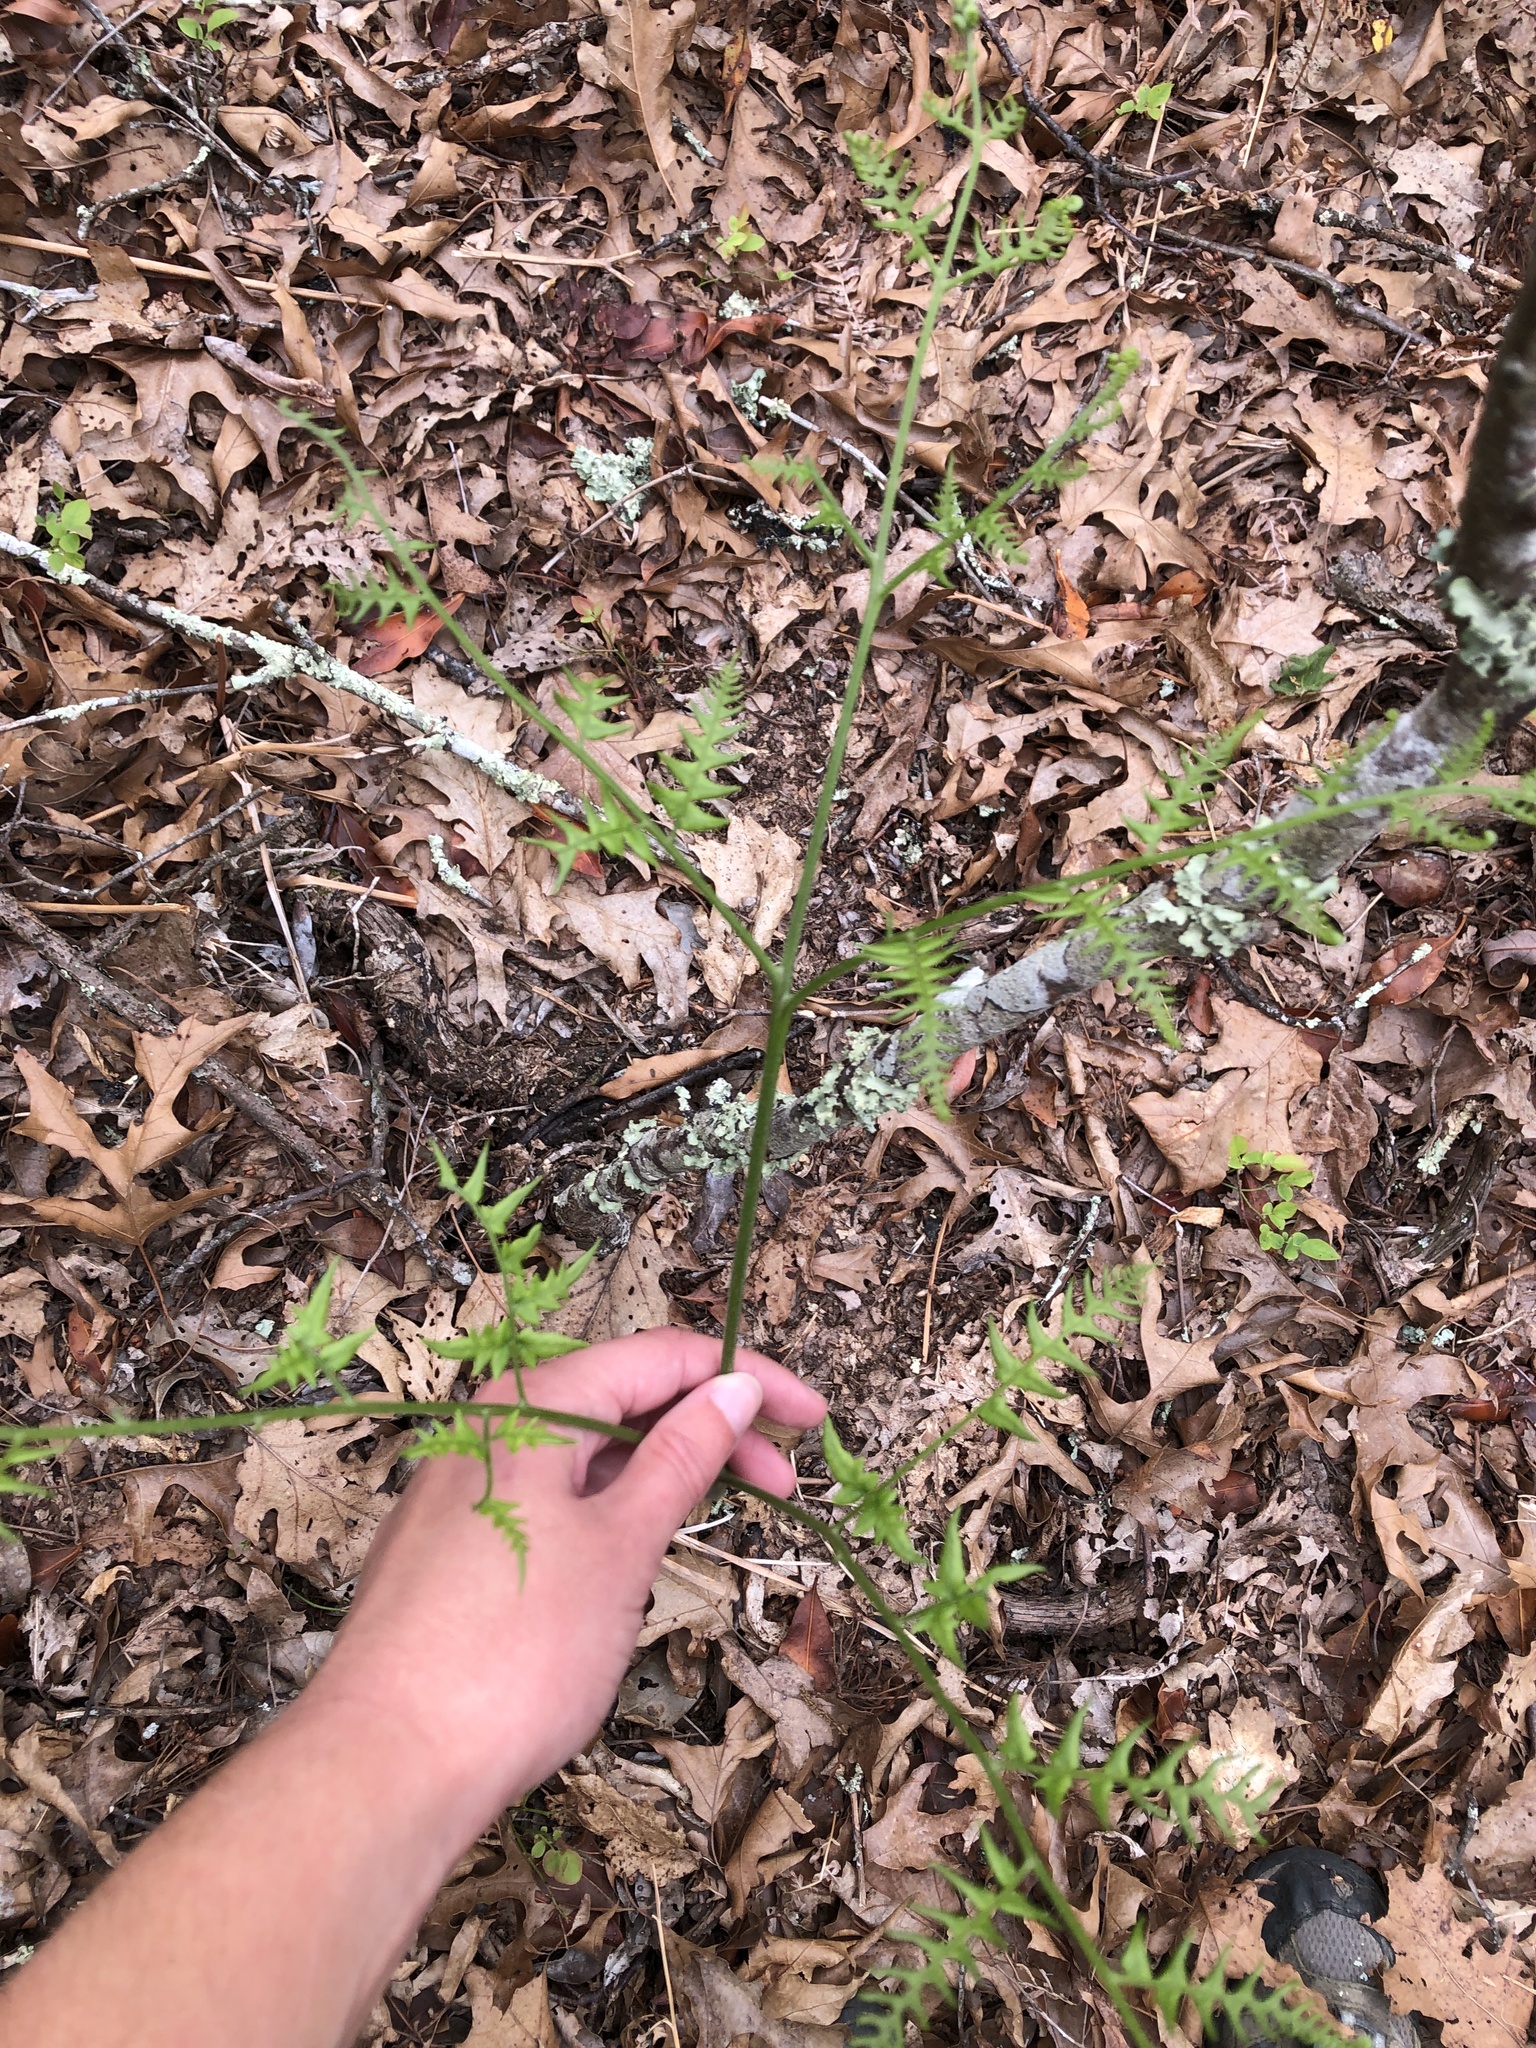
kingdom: Plantae
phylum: Tracheophyta
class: Polypodiopsida
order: Polypodiales
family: Dennstaedtiaceae
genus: Pteridium
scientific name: Pteridium aquilinum
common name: Bracken
